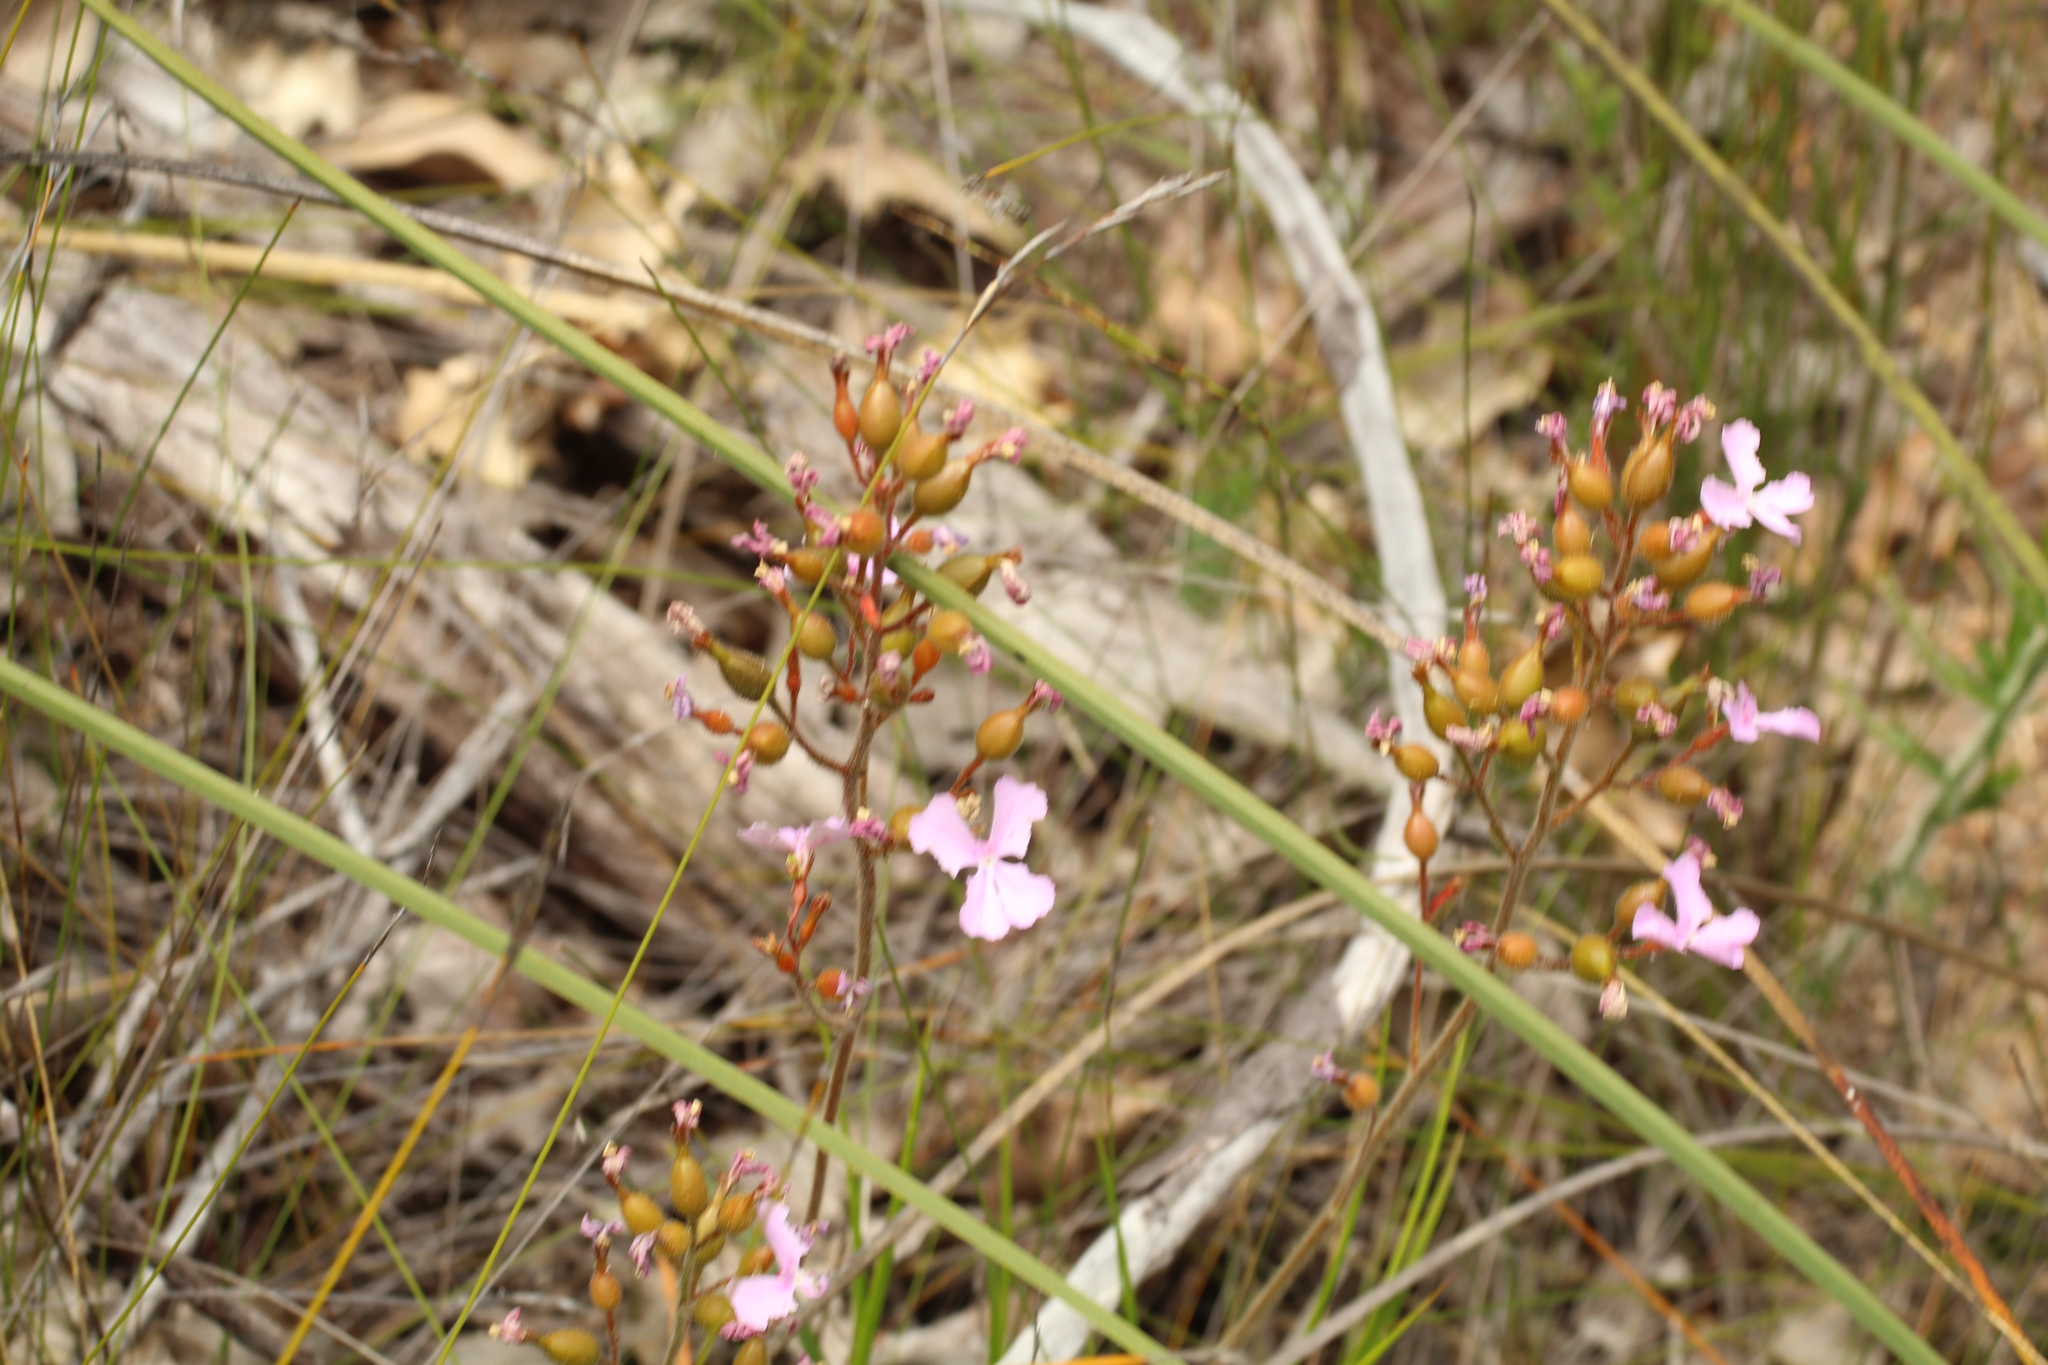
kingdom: Plantae
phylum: Tracheophyta
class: Magnoliopsida
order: Asterales
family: Stylidiaceae
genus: Stylidium
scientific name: Stylidium affine
